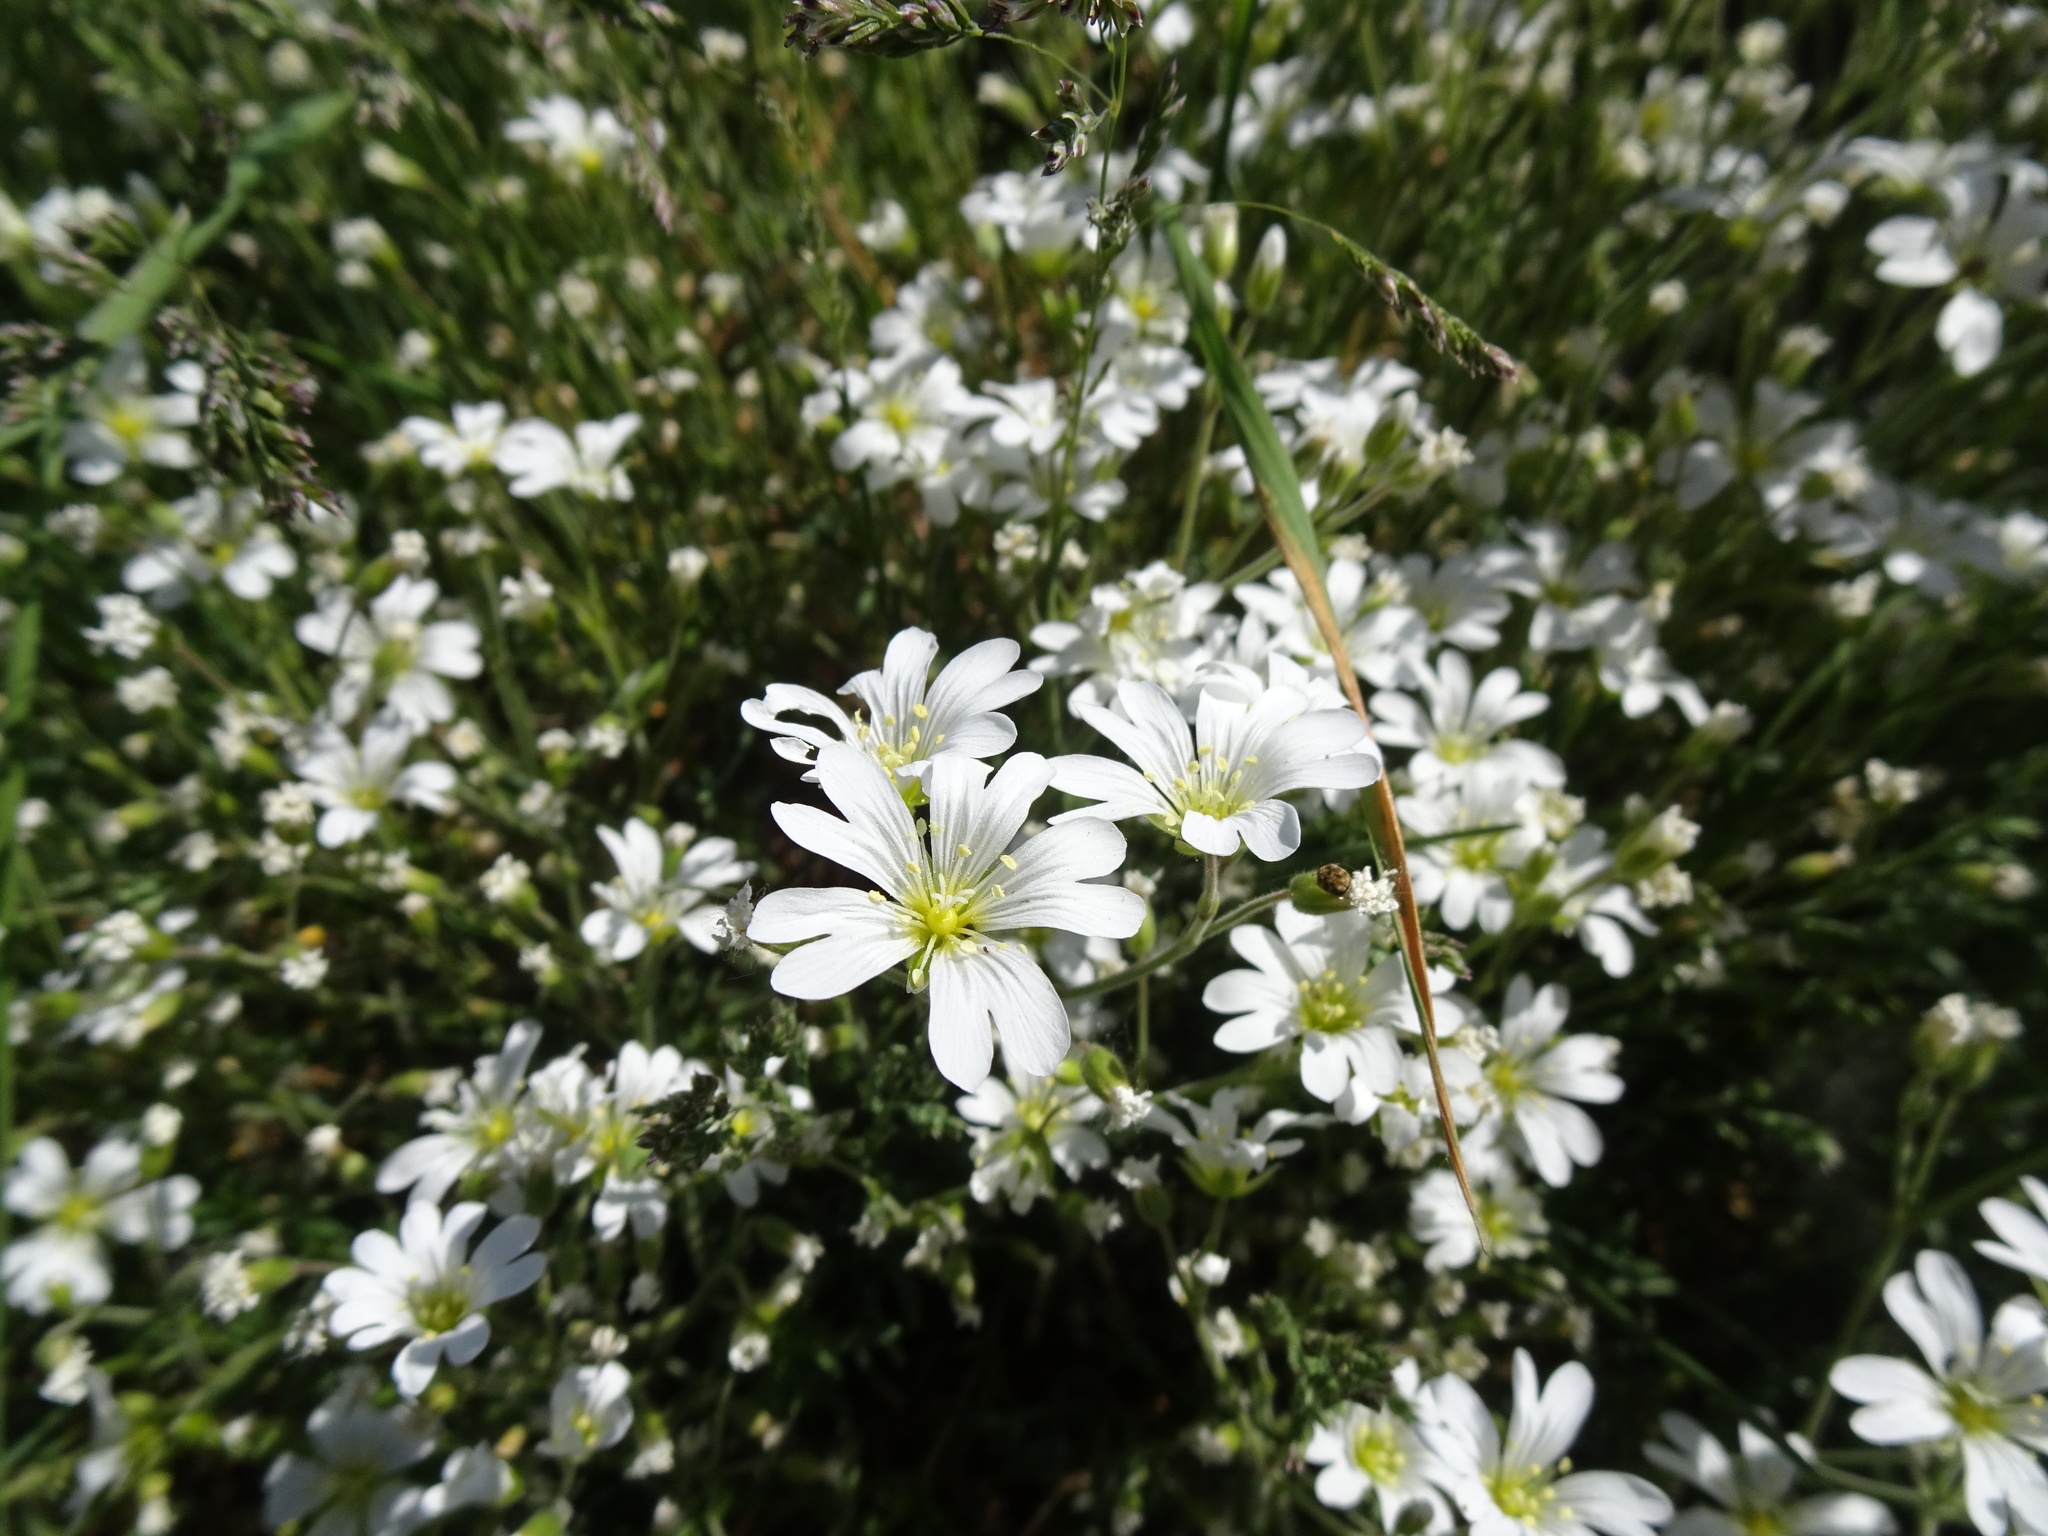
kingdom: Plantae
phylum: Tracheophyta
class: Magnoliopsida
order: Caryophyllales
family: Caryophyllaceae
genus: Cerastium
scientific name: Cerastium arvense
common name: Field mouse-ear
